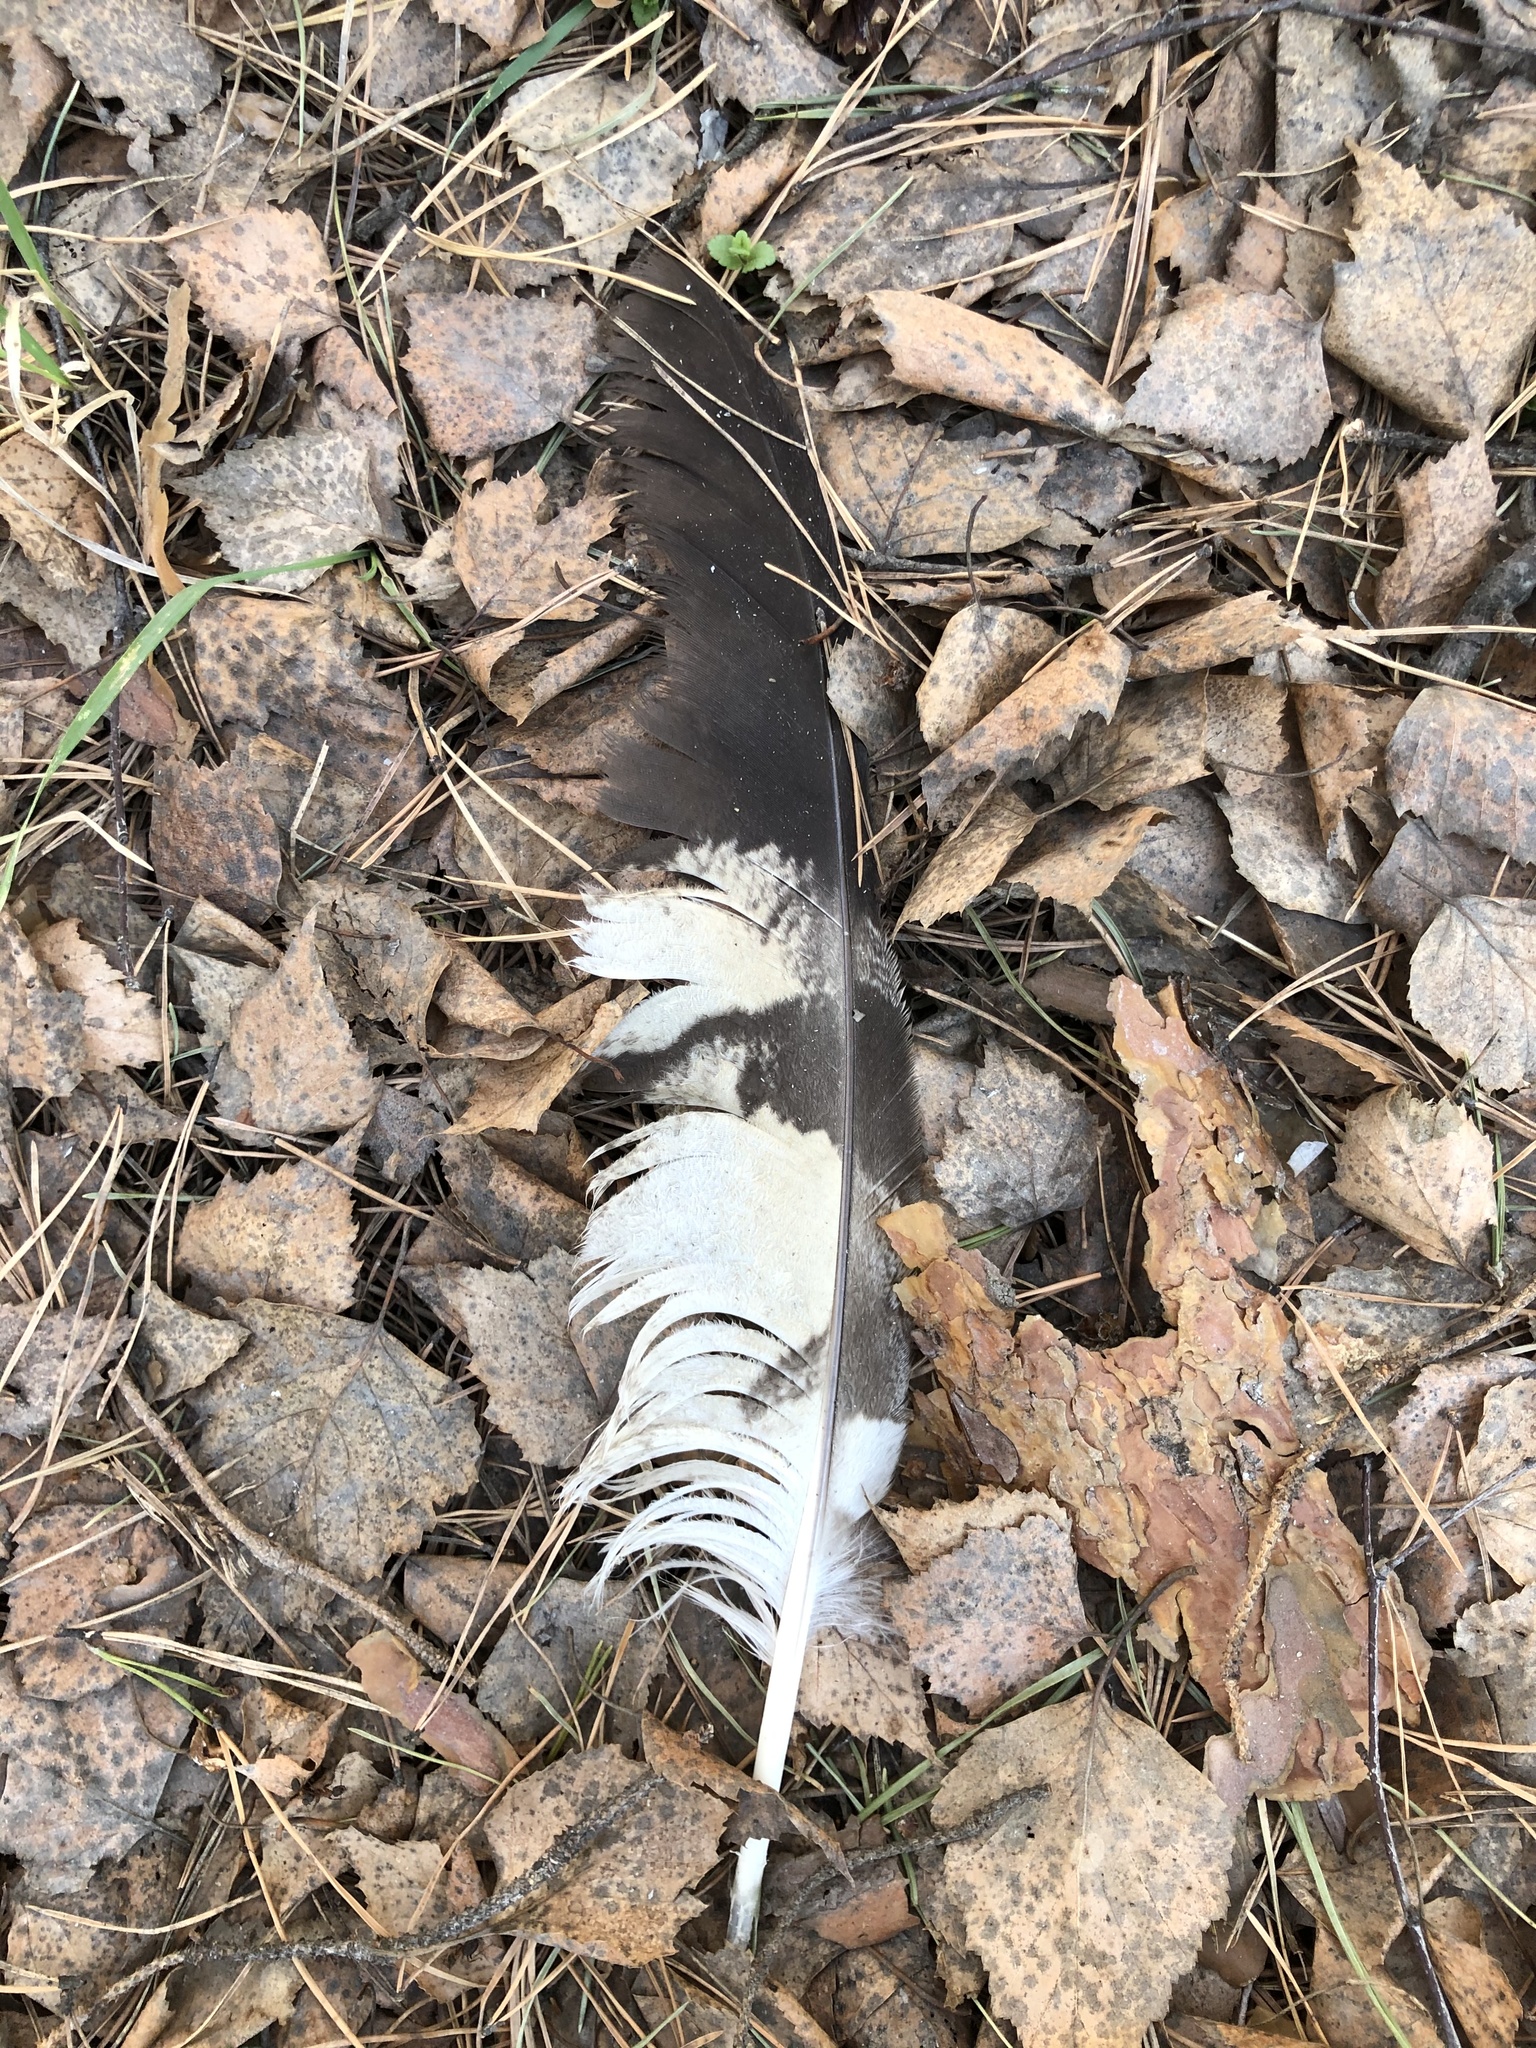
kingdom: Animalia
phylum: Chordata
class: Aves
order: Accipitriformes
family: Accipitridae
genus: Buteo
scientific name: Buteo buteo
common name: Common buzzard
